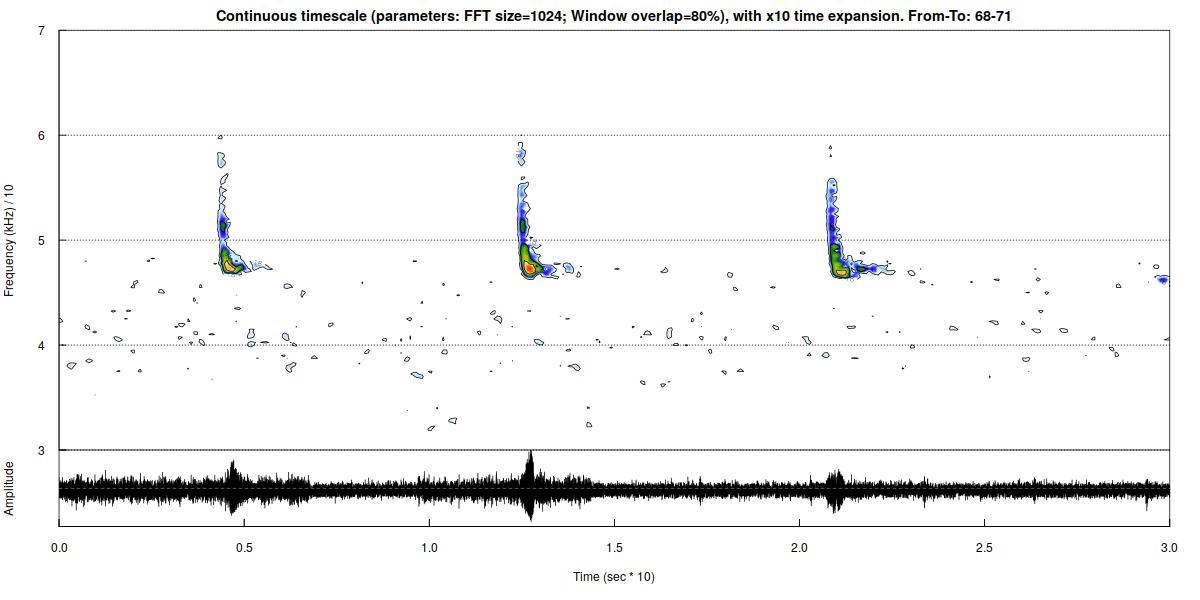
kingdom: Animalia
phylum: Chordata
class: Mammalia
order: Chiroptera
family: Vespertilionidae
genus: Pipistrellus
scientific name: Pipistrellus pipistrellus
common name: Common pipistrelle
